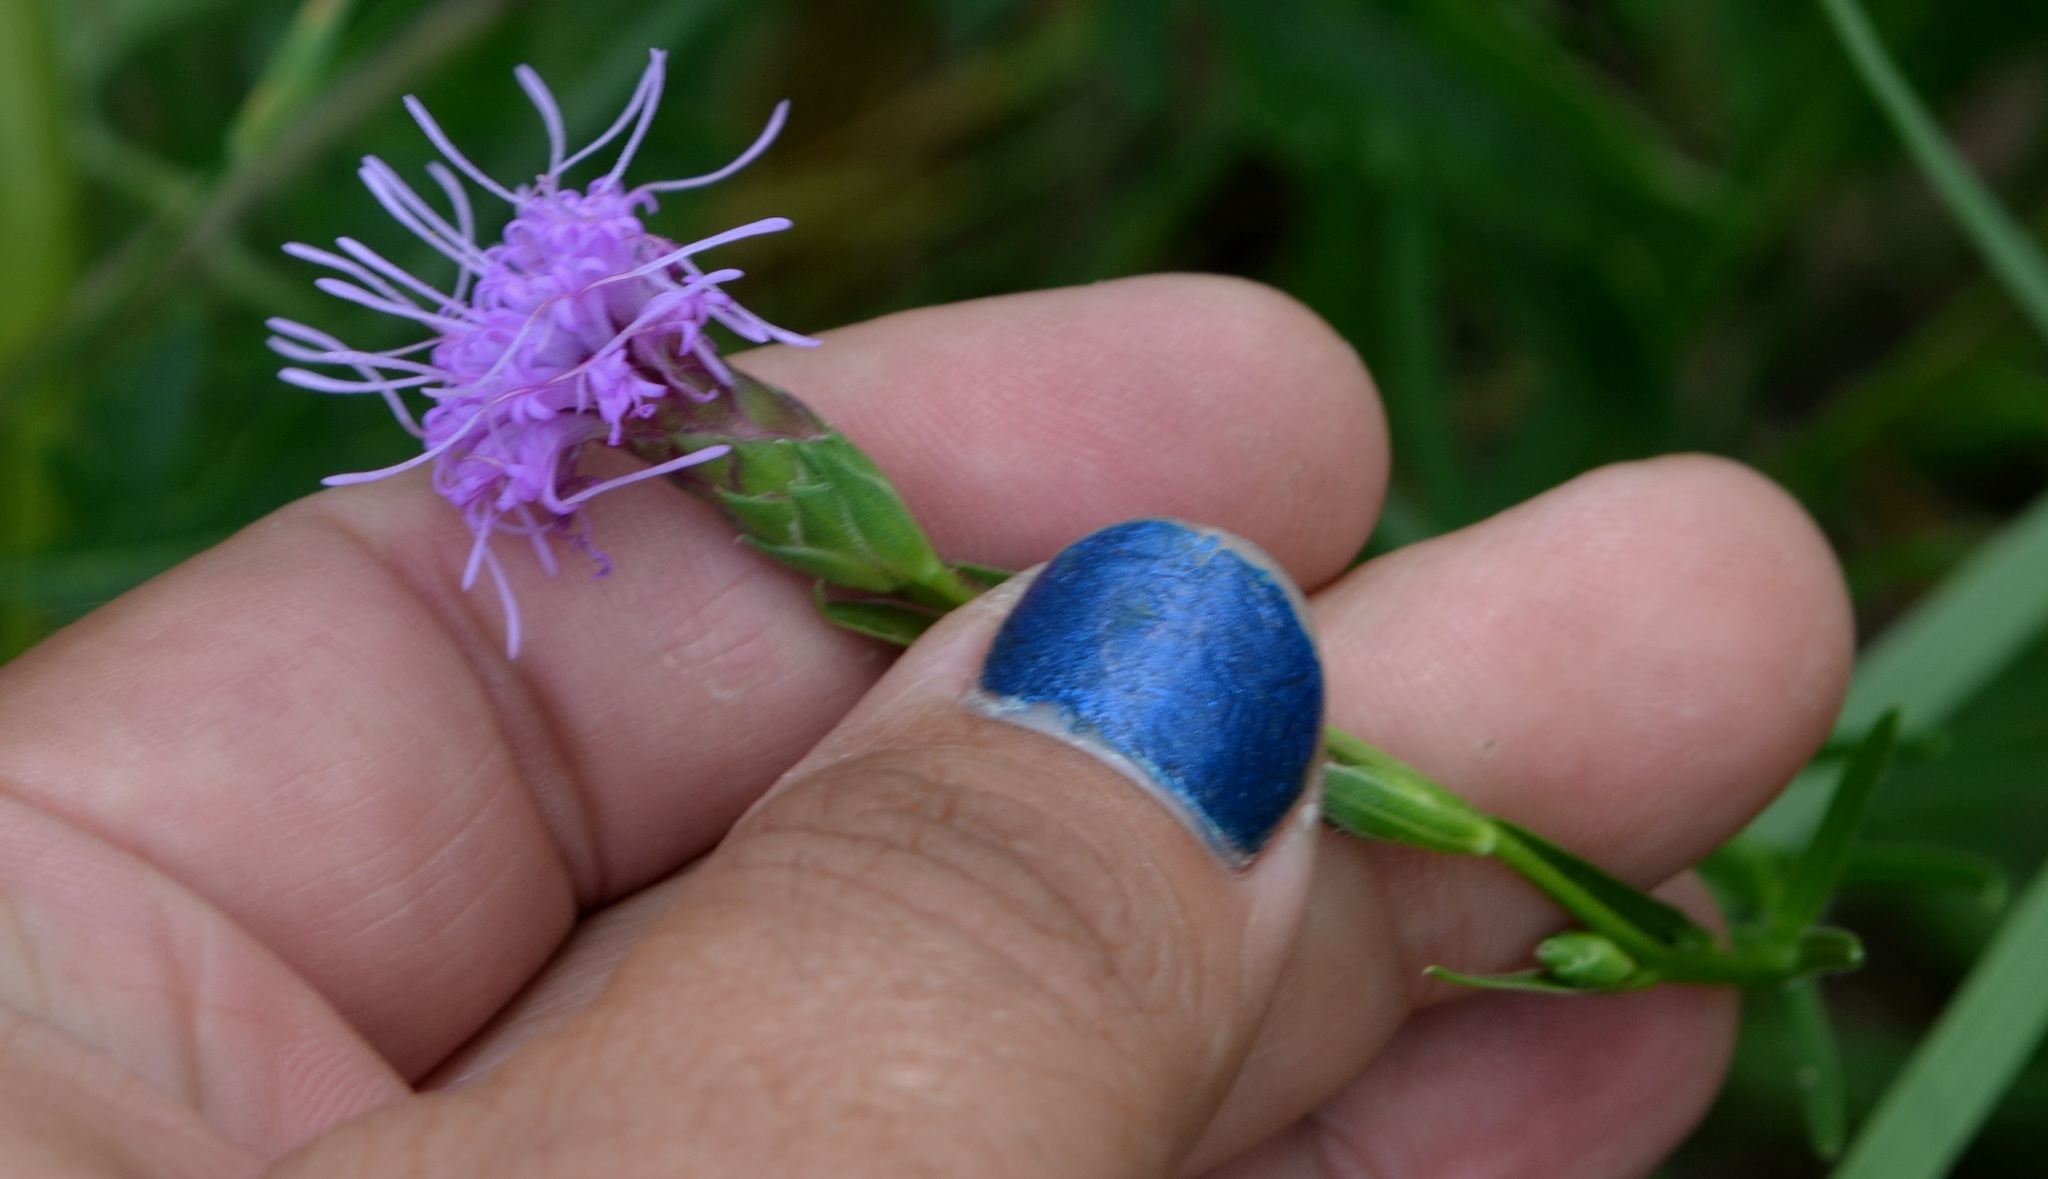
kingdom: Plantae
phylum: Tracheophyta
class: Magnoliopsida
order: Asterales
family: Asteraceae
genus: Liatris
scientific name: Liatris cylindracea
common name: Few-head blazingstar
